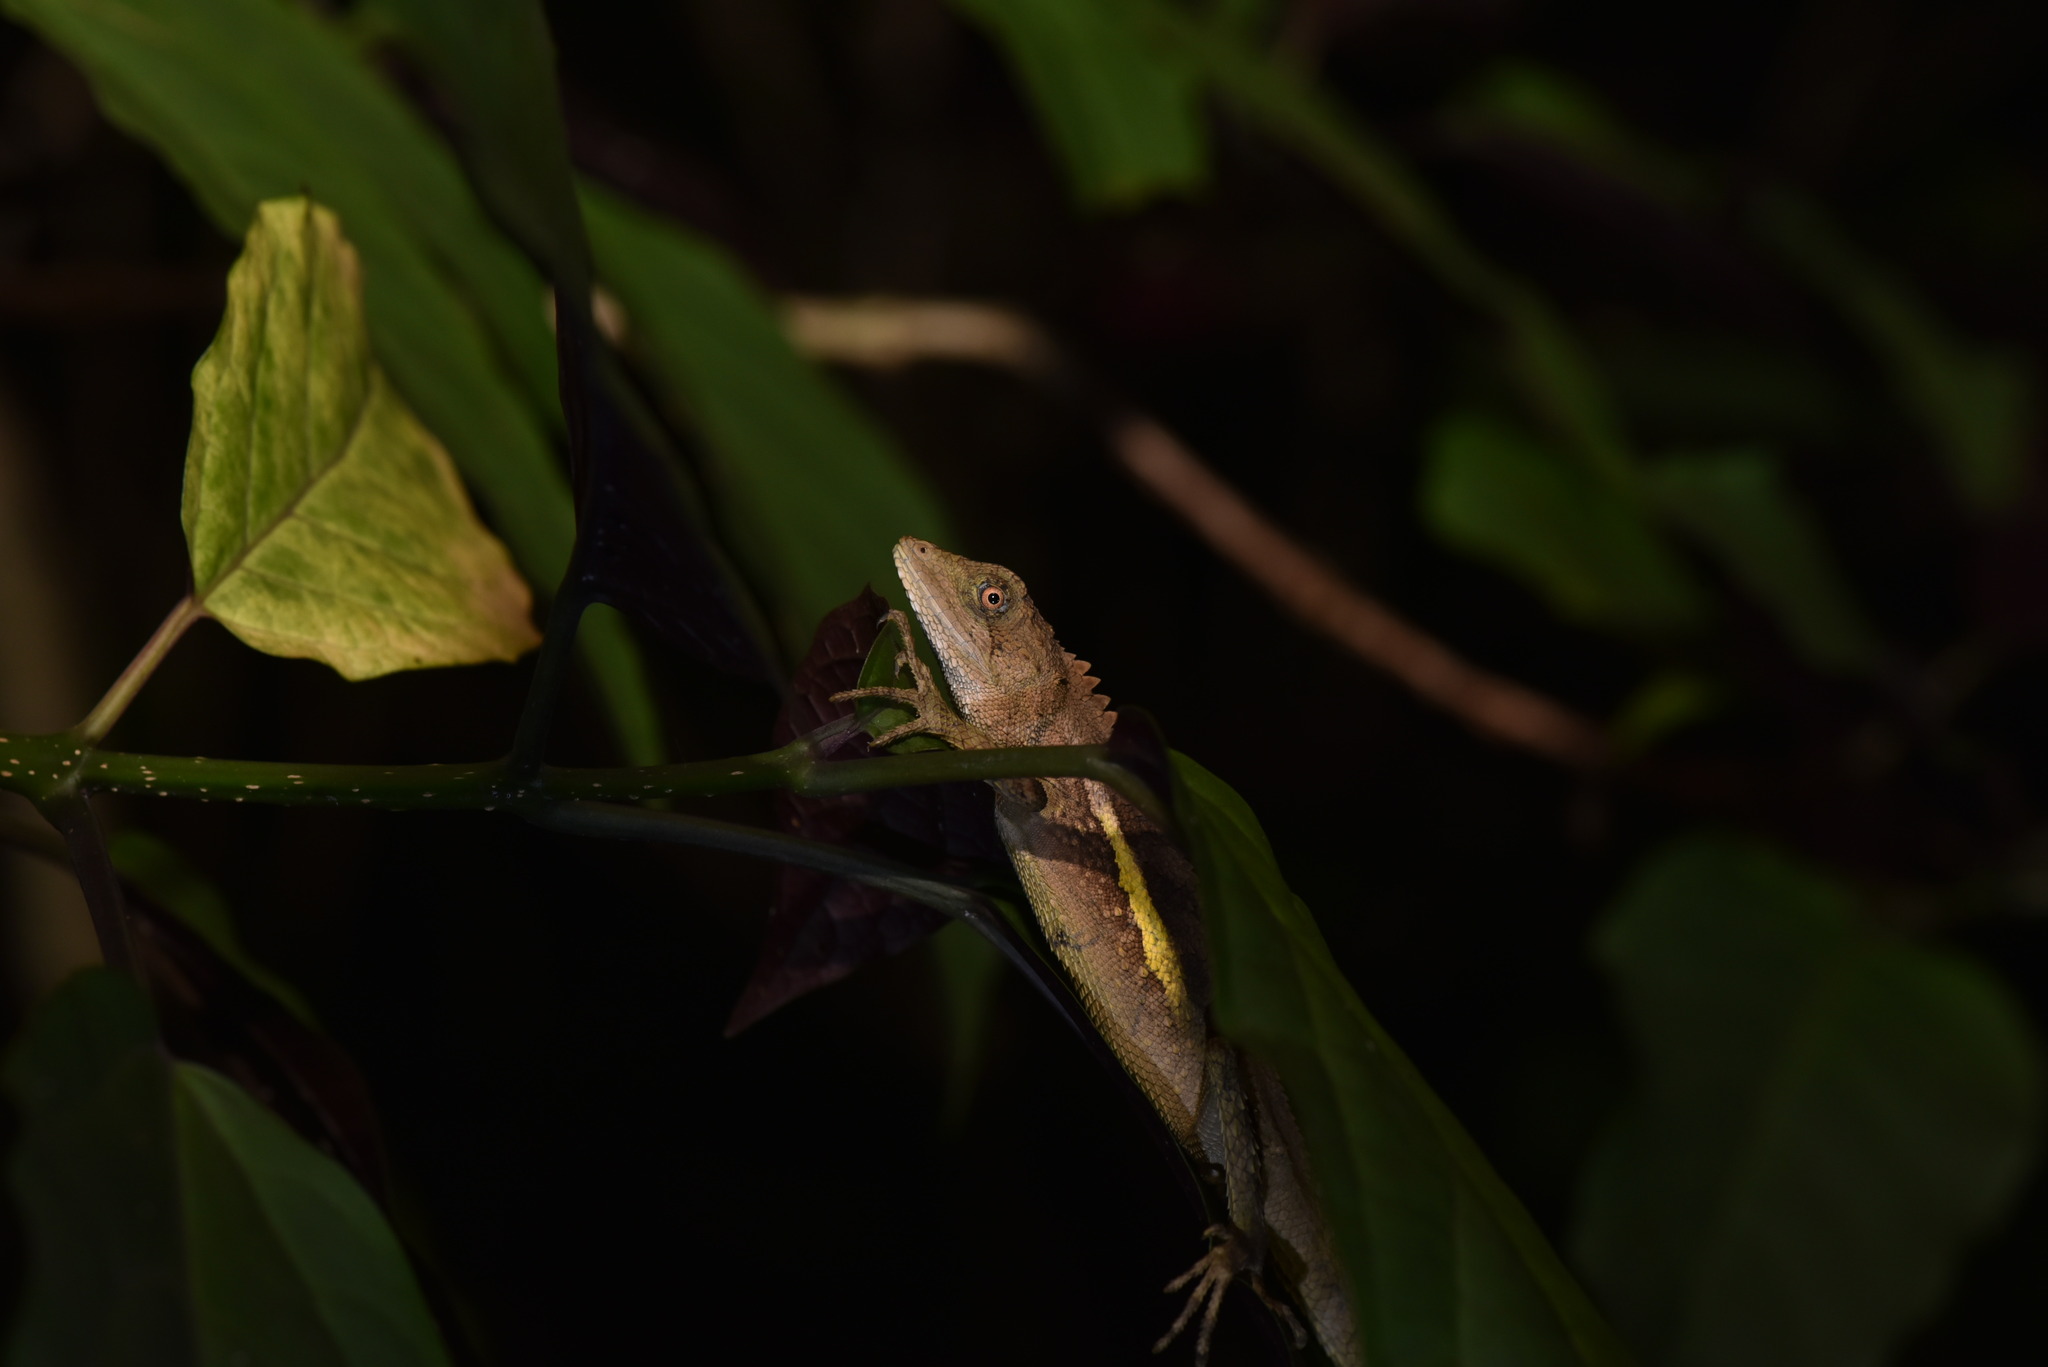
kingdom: Animalia
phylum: Chordata
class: Squamata
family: Agamidae
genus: Diploderma
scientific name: Diploderma swinhonis
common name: Taiwan japalure
